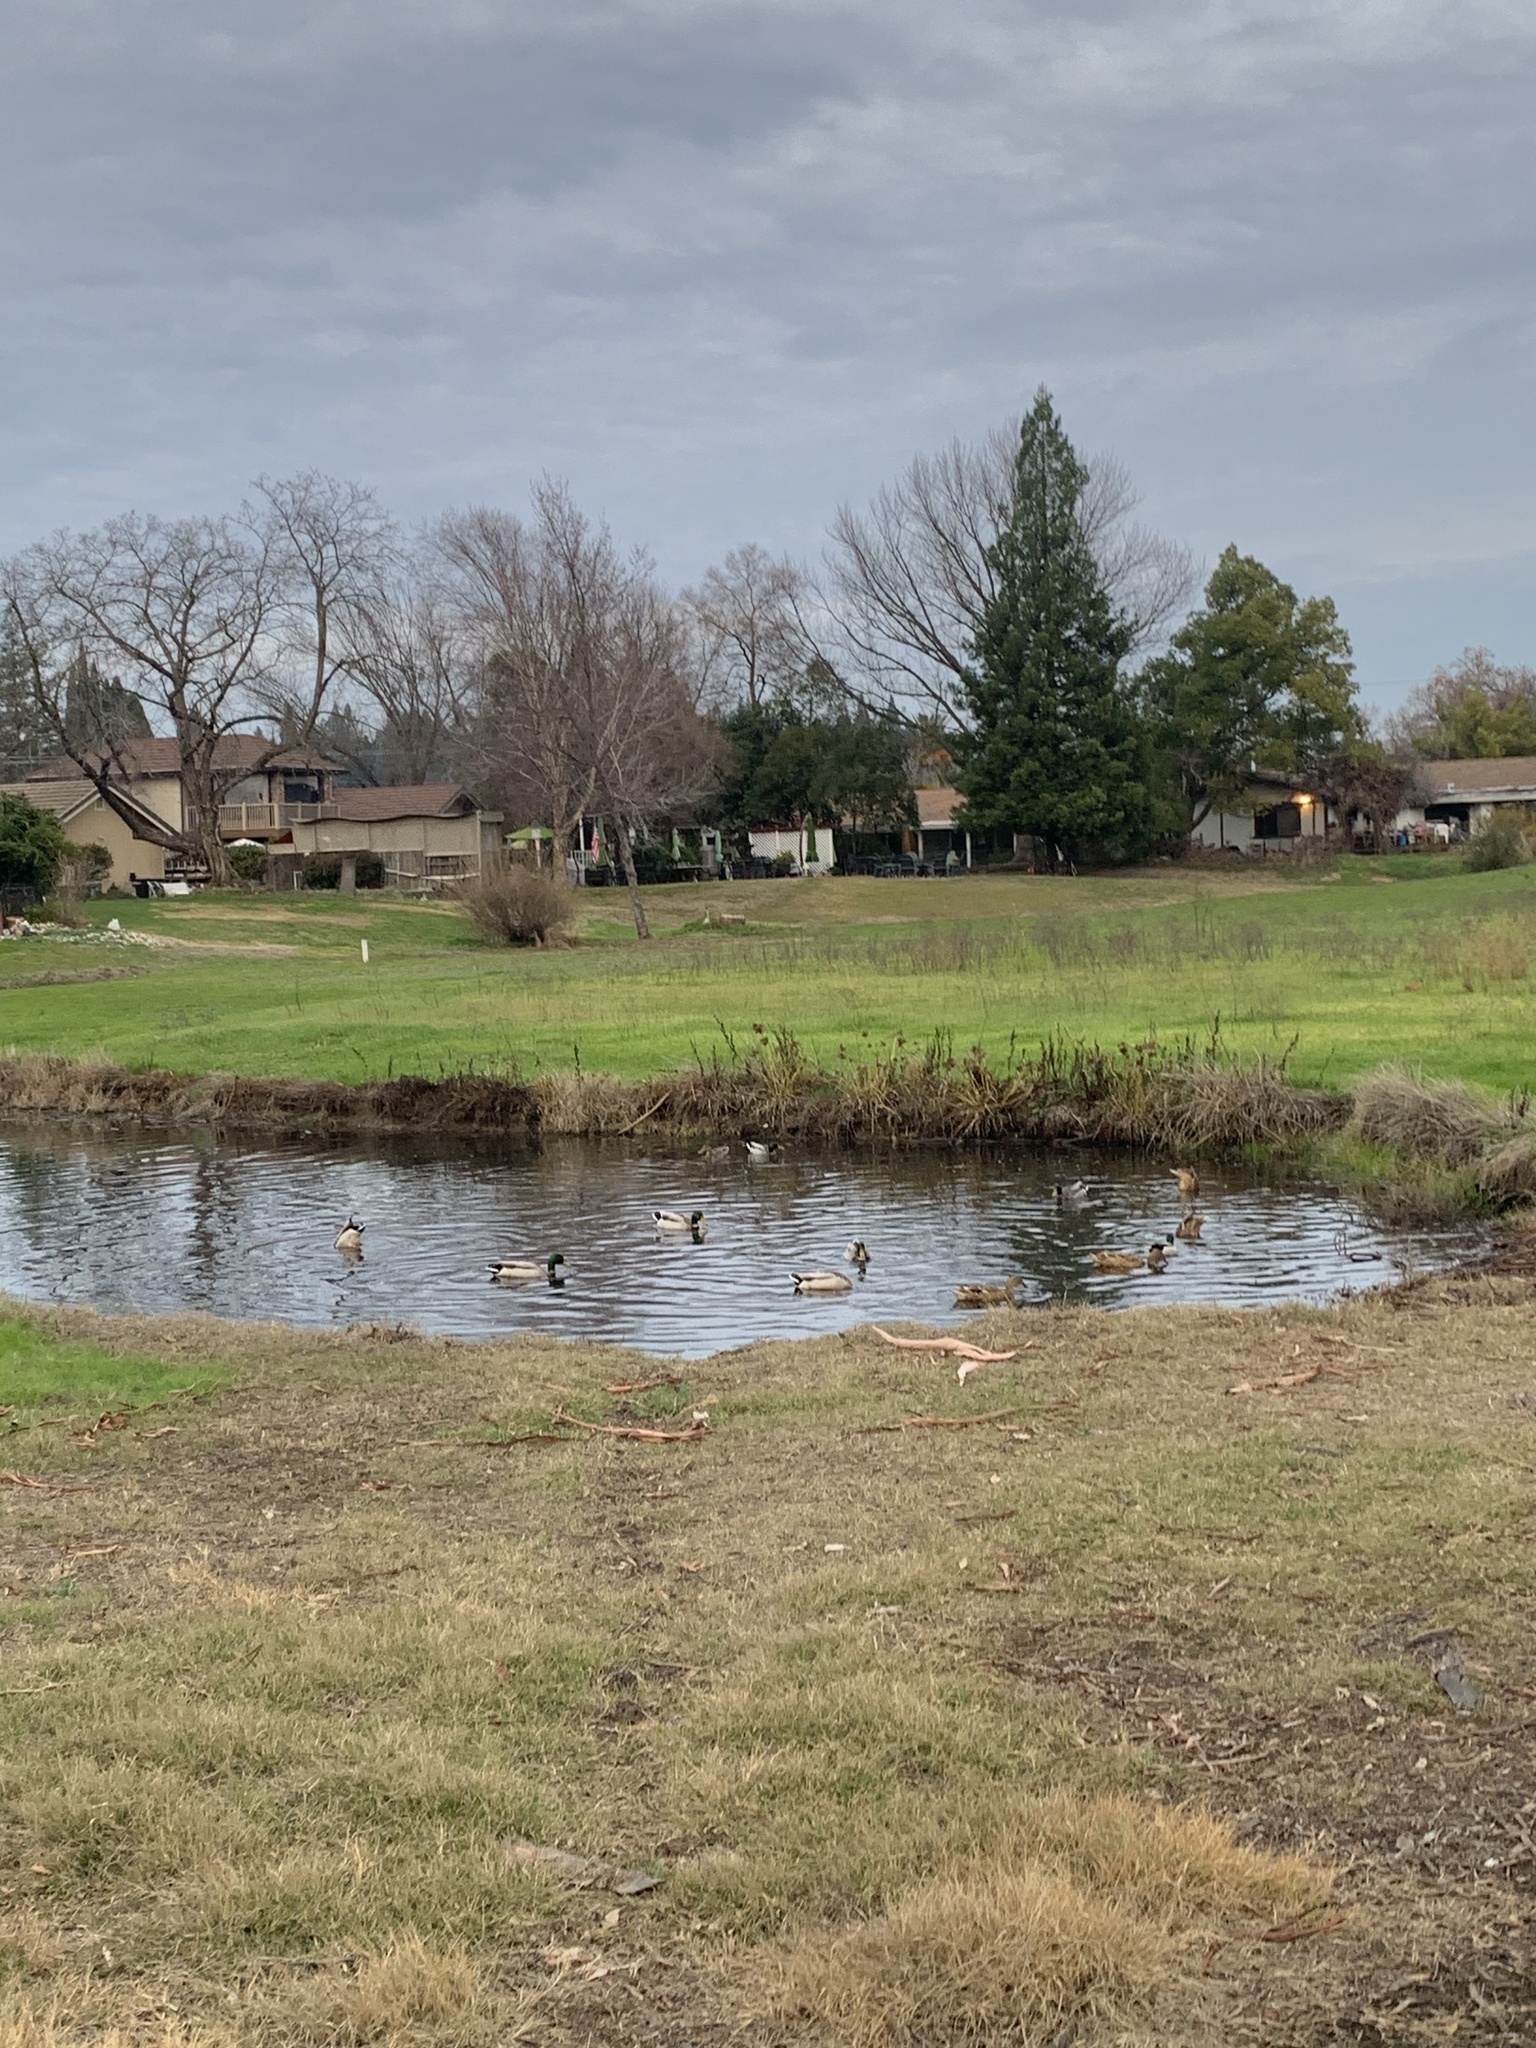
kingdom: Animalia
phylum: Chordata
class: Aves
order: Anseriformes
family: Anatidae
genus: Anas
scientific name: Anas platyrhynchos
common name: Mallard
